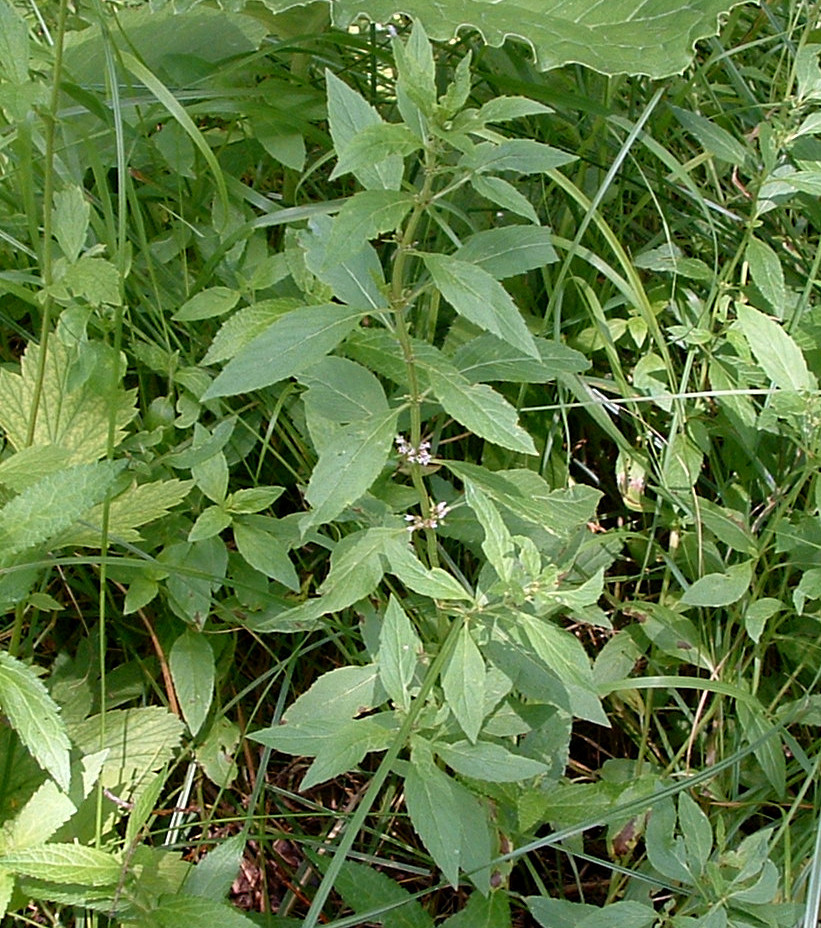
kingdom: Plantae
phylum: Tracheophyta
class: Magnoliopsida
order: Lamiales
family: Lamiaceae
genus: Mentha
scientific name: Mentha canadensis
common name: American corn mint
